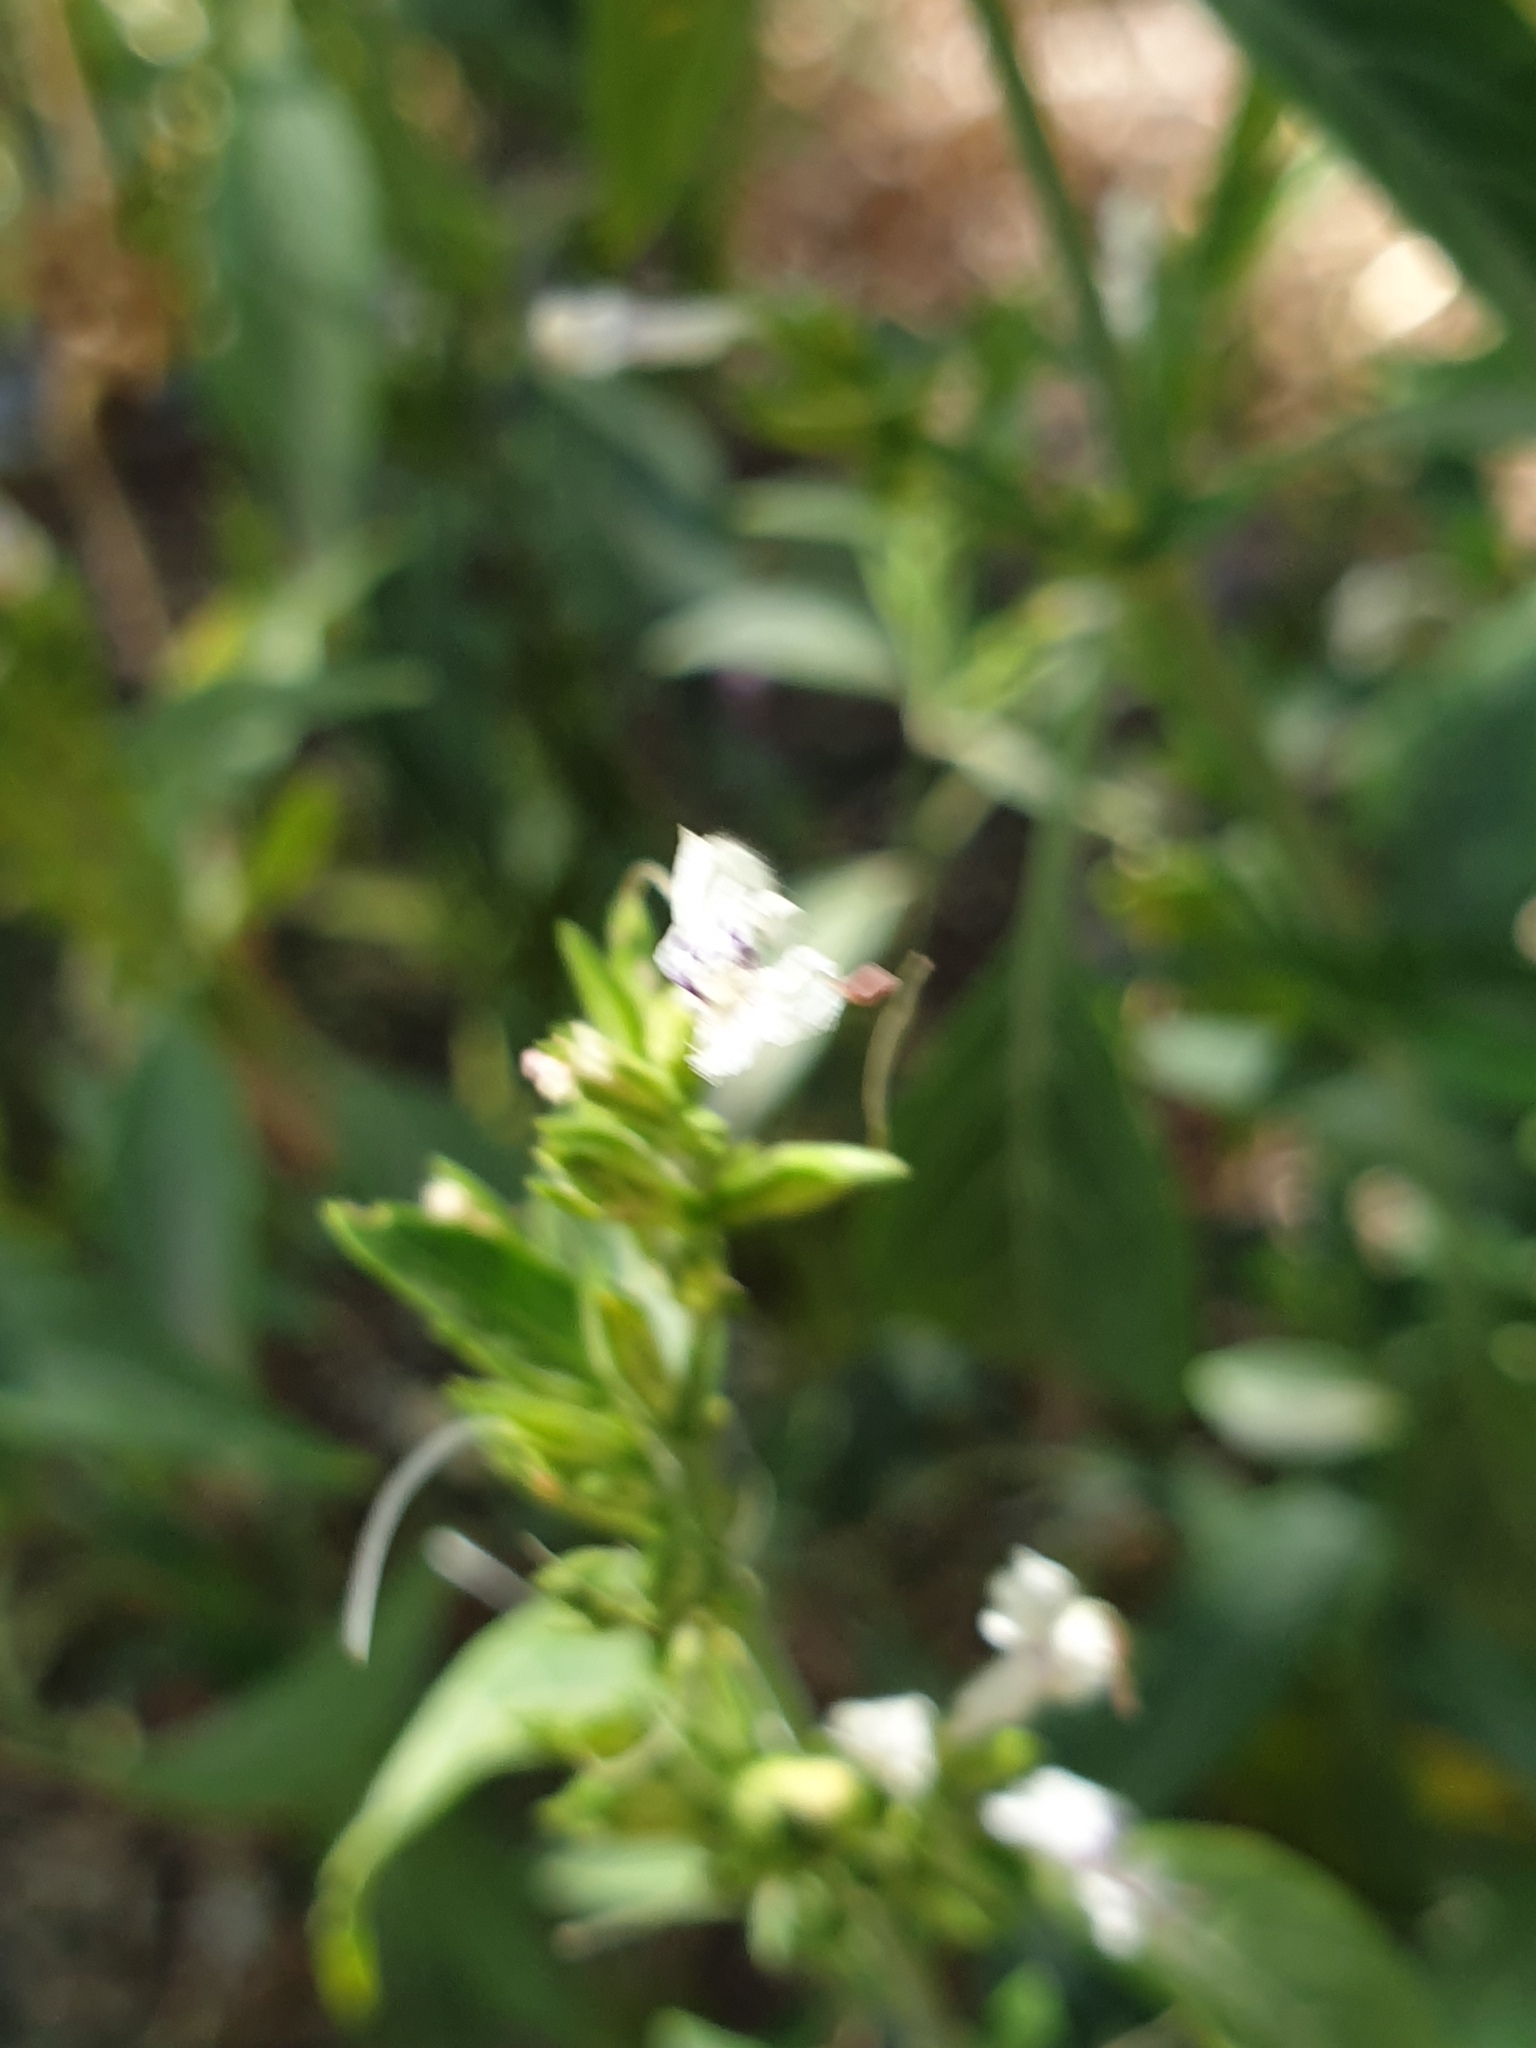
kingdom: Plantae
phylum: Tracheophyta
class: Magnoliopsida
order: Lamiales
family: Acanthaceae
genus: Hypoestes
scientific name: Hypoestes forskaolii
